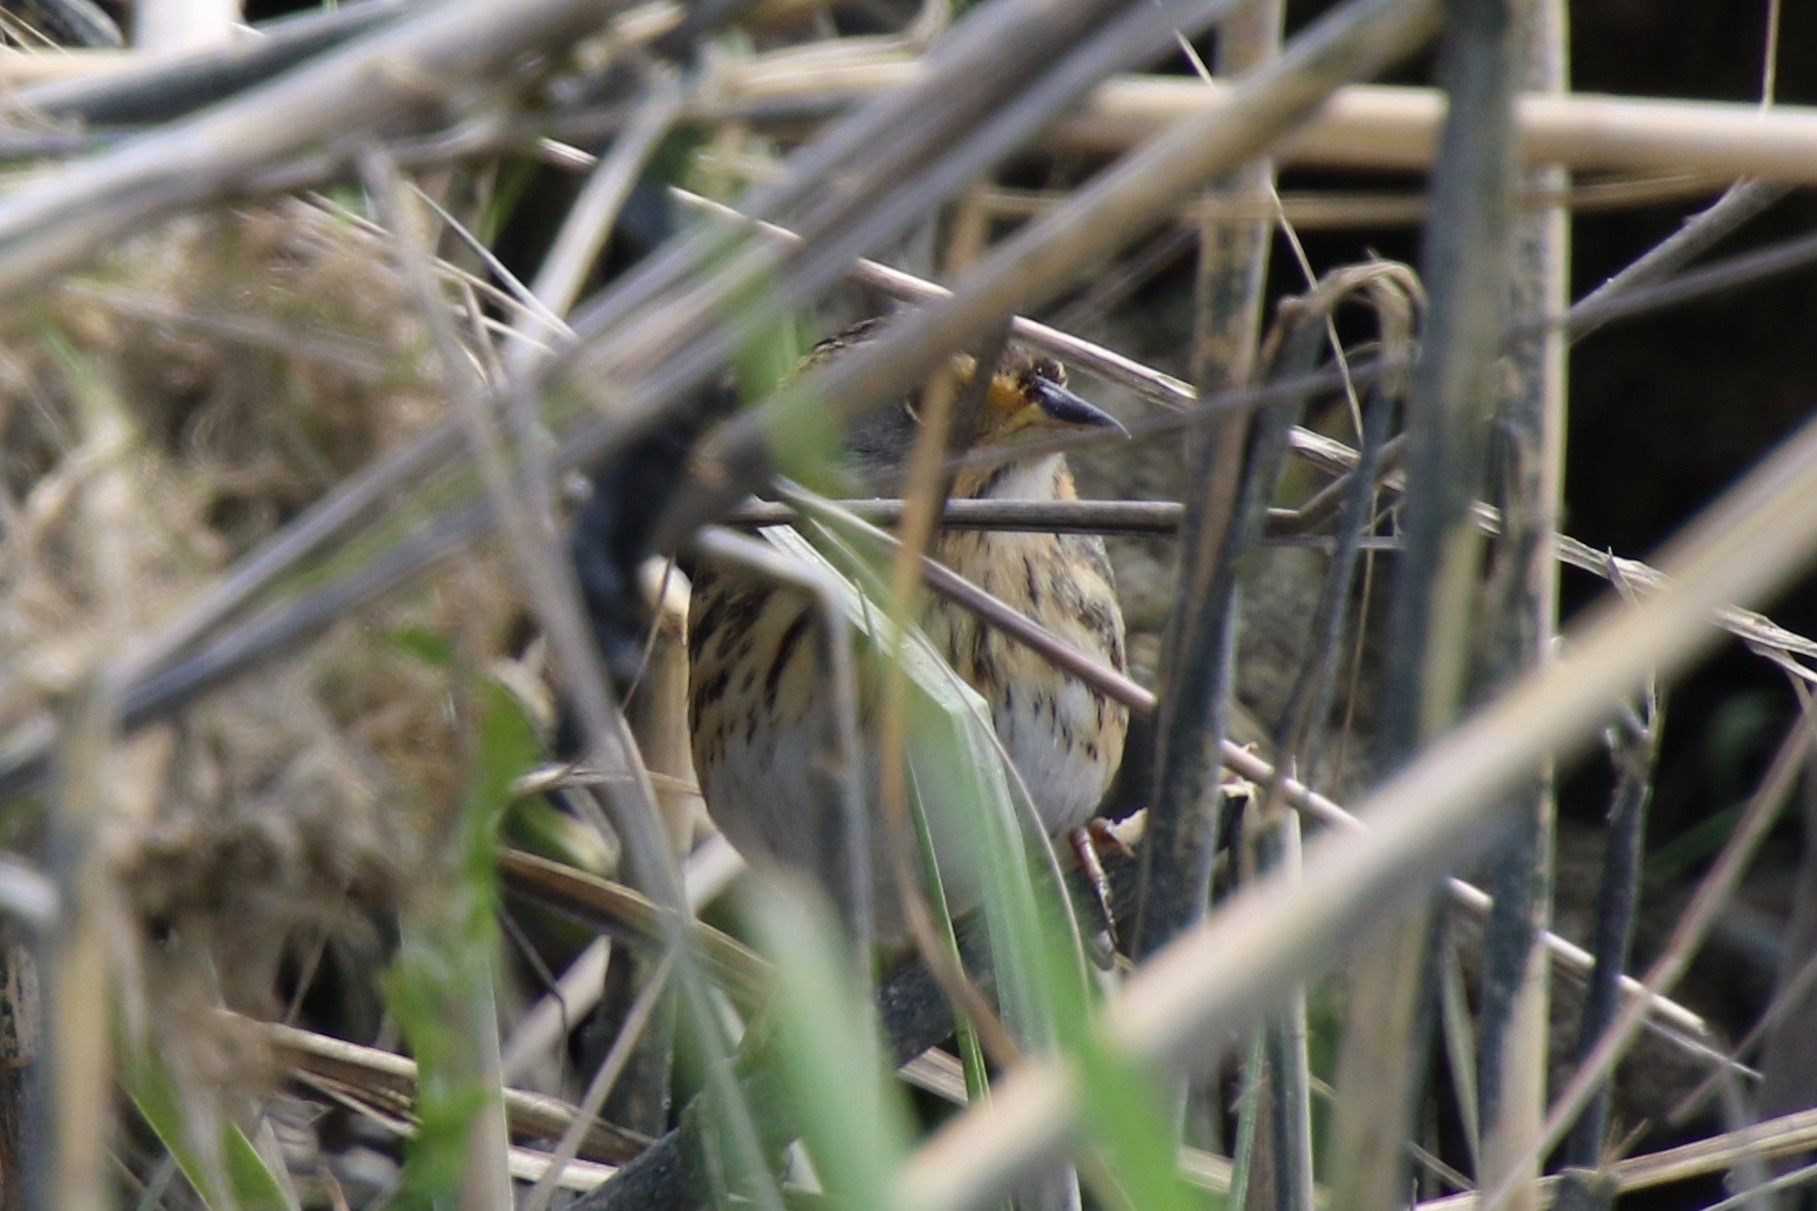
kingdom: Animalia
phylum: Chordata
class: Aves
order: Passeriformes
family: Passerellidae
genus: Ammospiza
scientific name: Ammospiza caudacuta
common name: Saltmarsh sparrow
